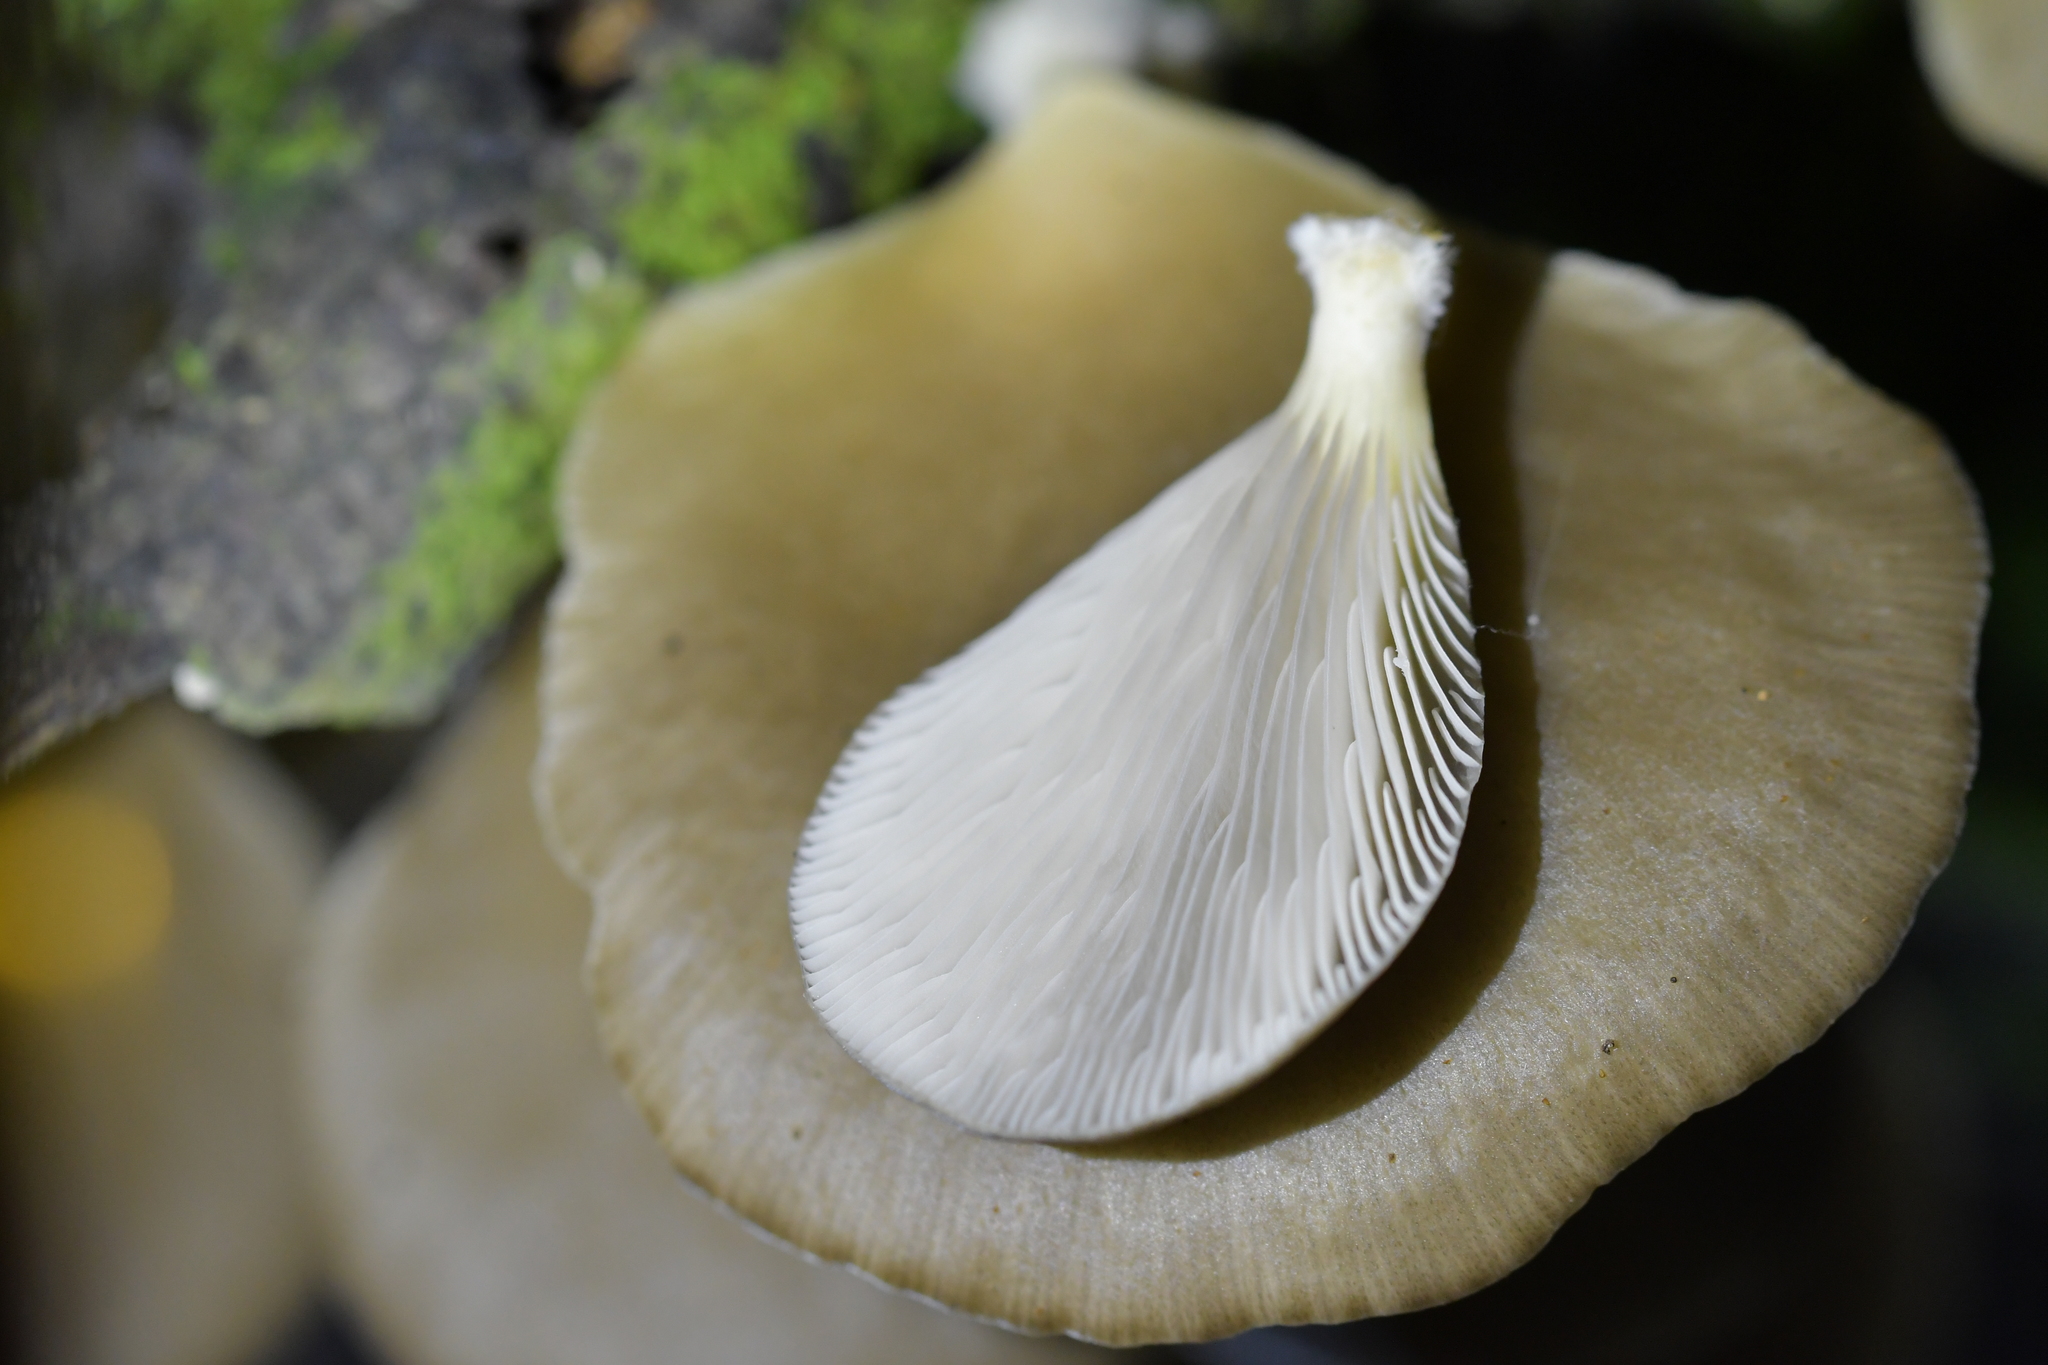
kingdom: Fungi
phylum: Basidiomycota
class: Agaricomycetes
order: Agaricales
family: Pleurotaceae
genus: Pleurotus
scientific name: Pleurotus purpureo-olivaceus
